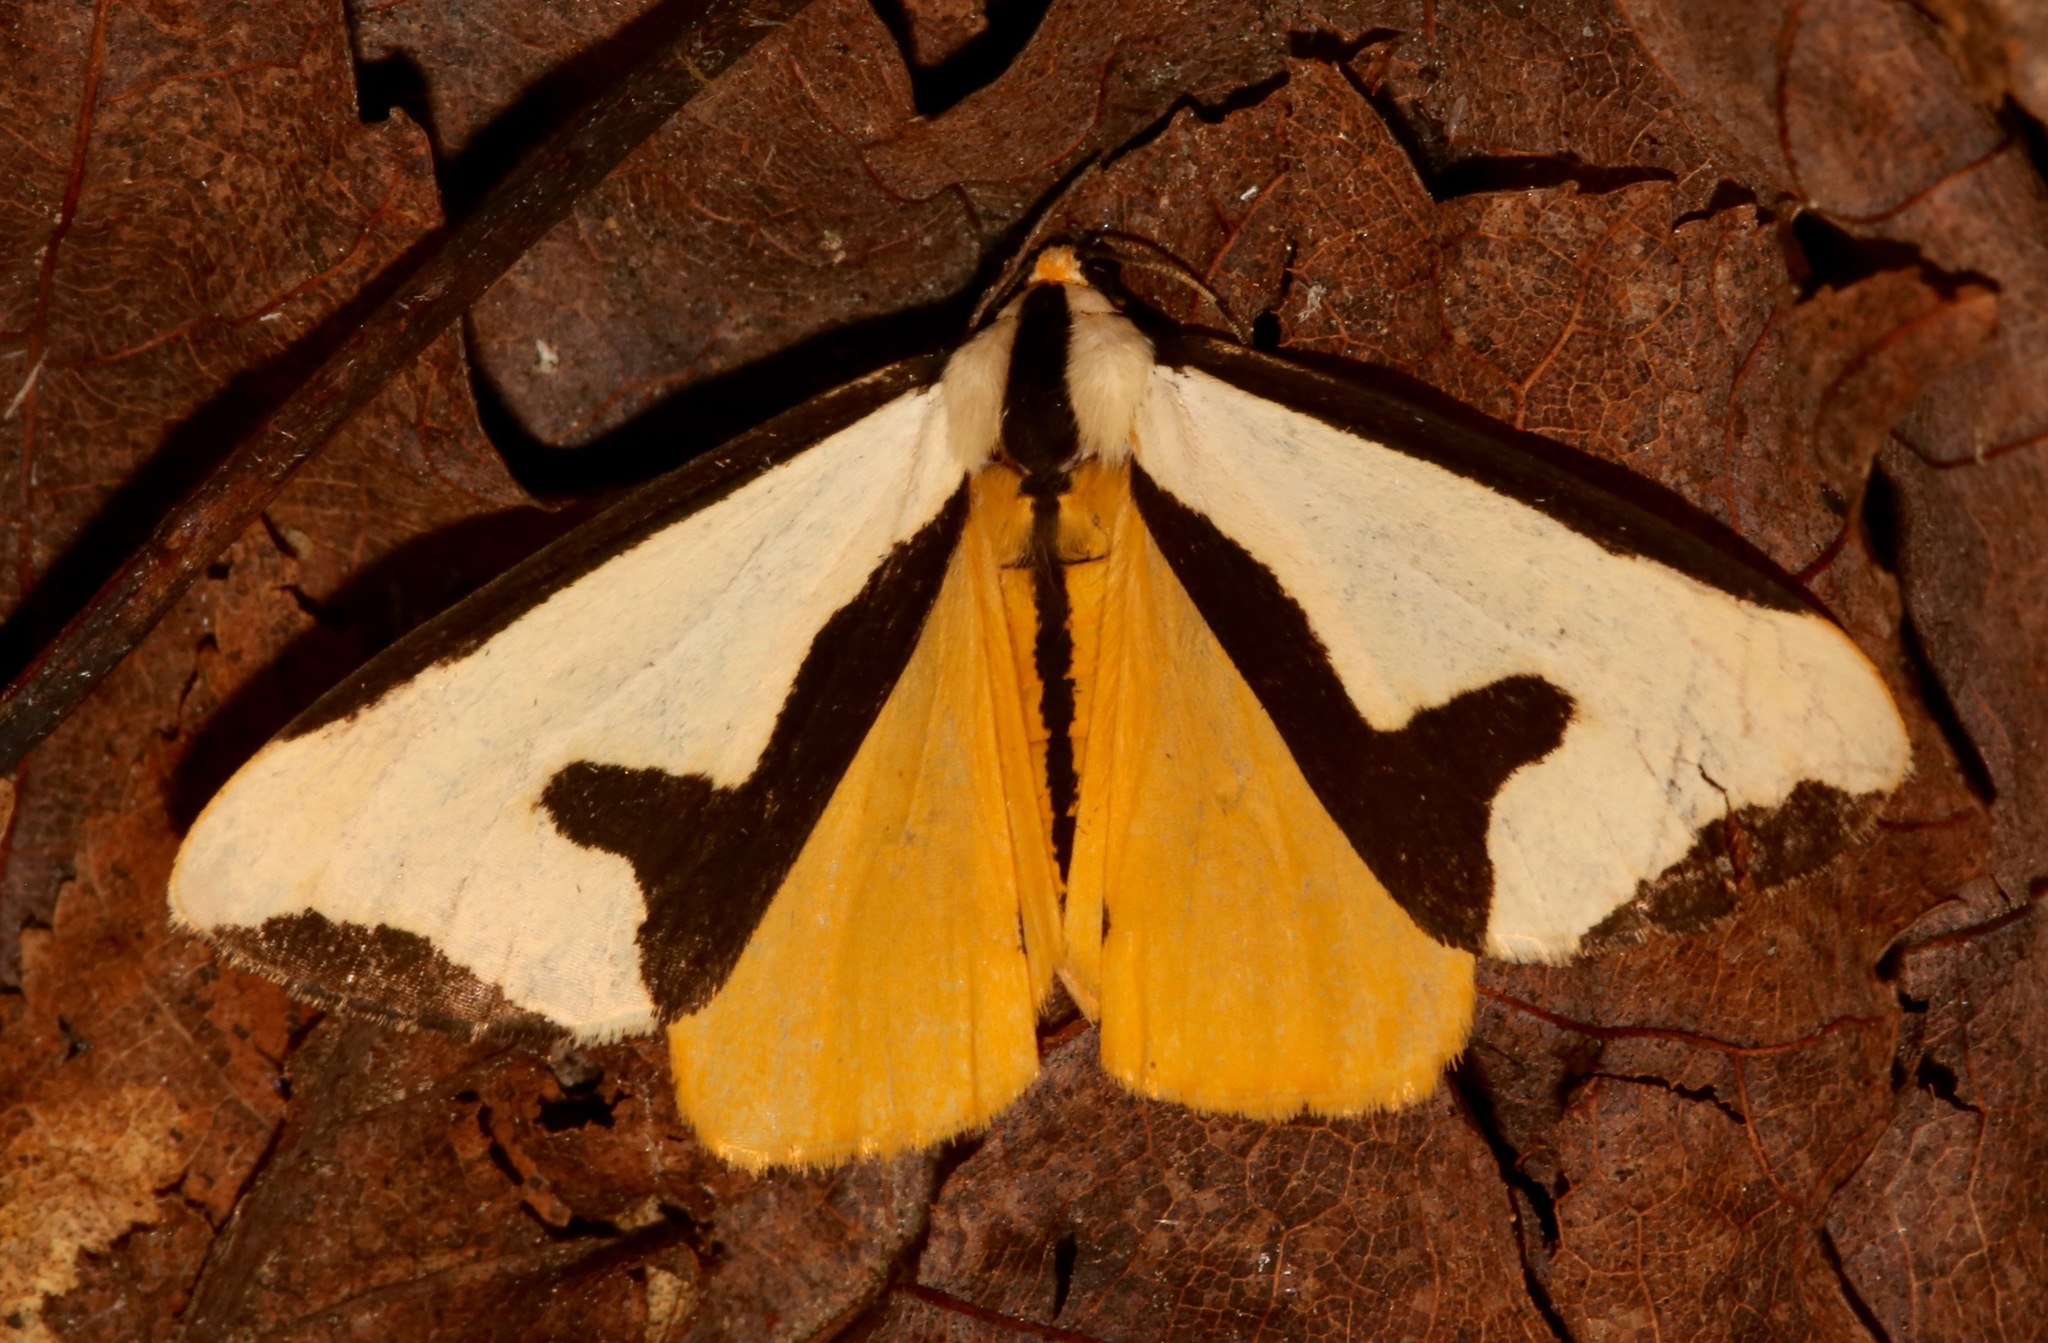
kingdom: Animalia
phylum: Arthropoda
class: Insecta
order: Lepidoptera
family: Erebidae
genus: Haploa
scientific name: Haploa clymene
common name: Clymene moth
